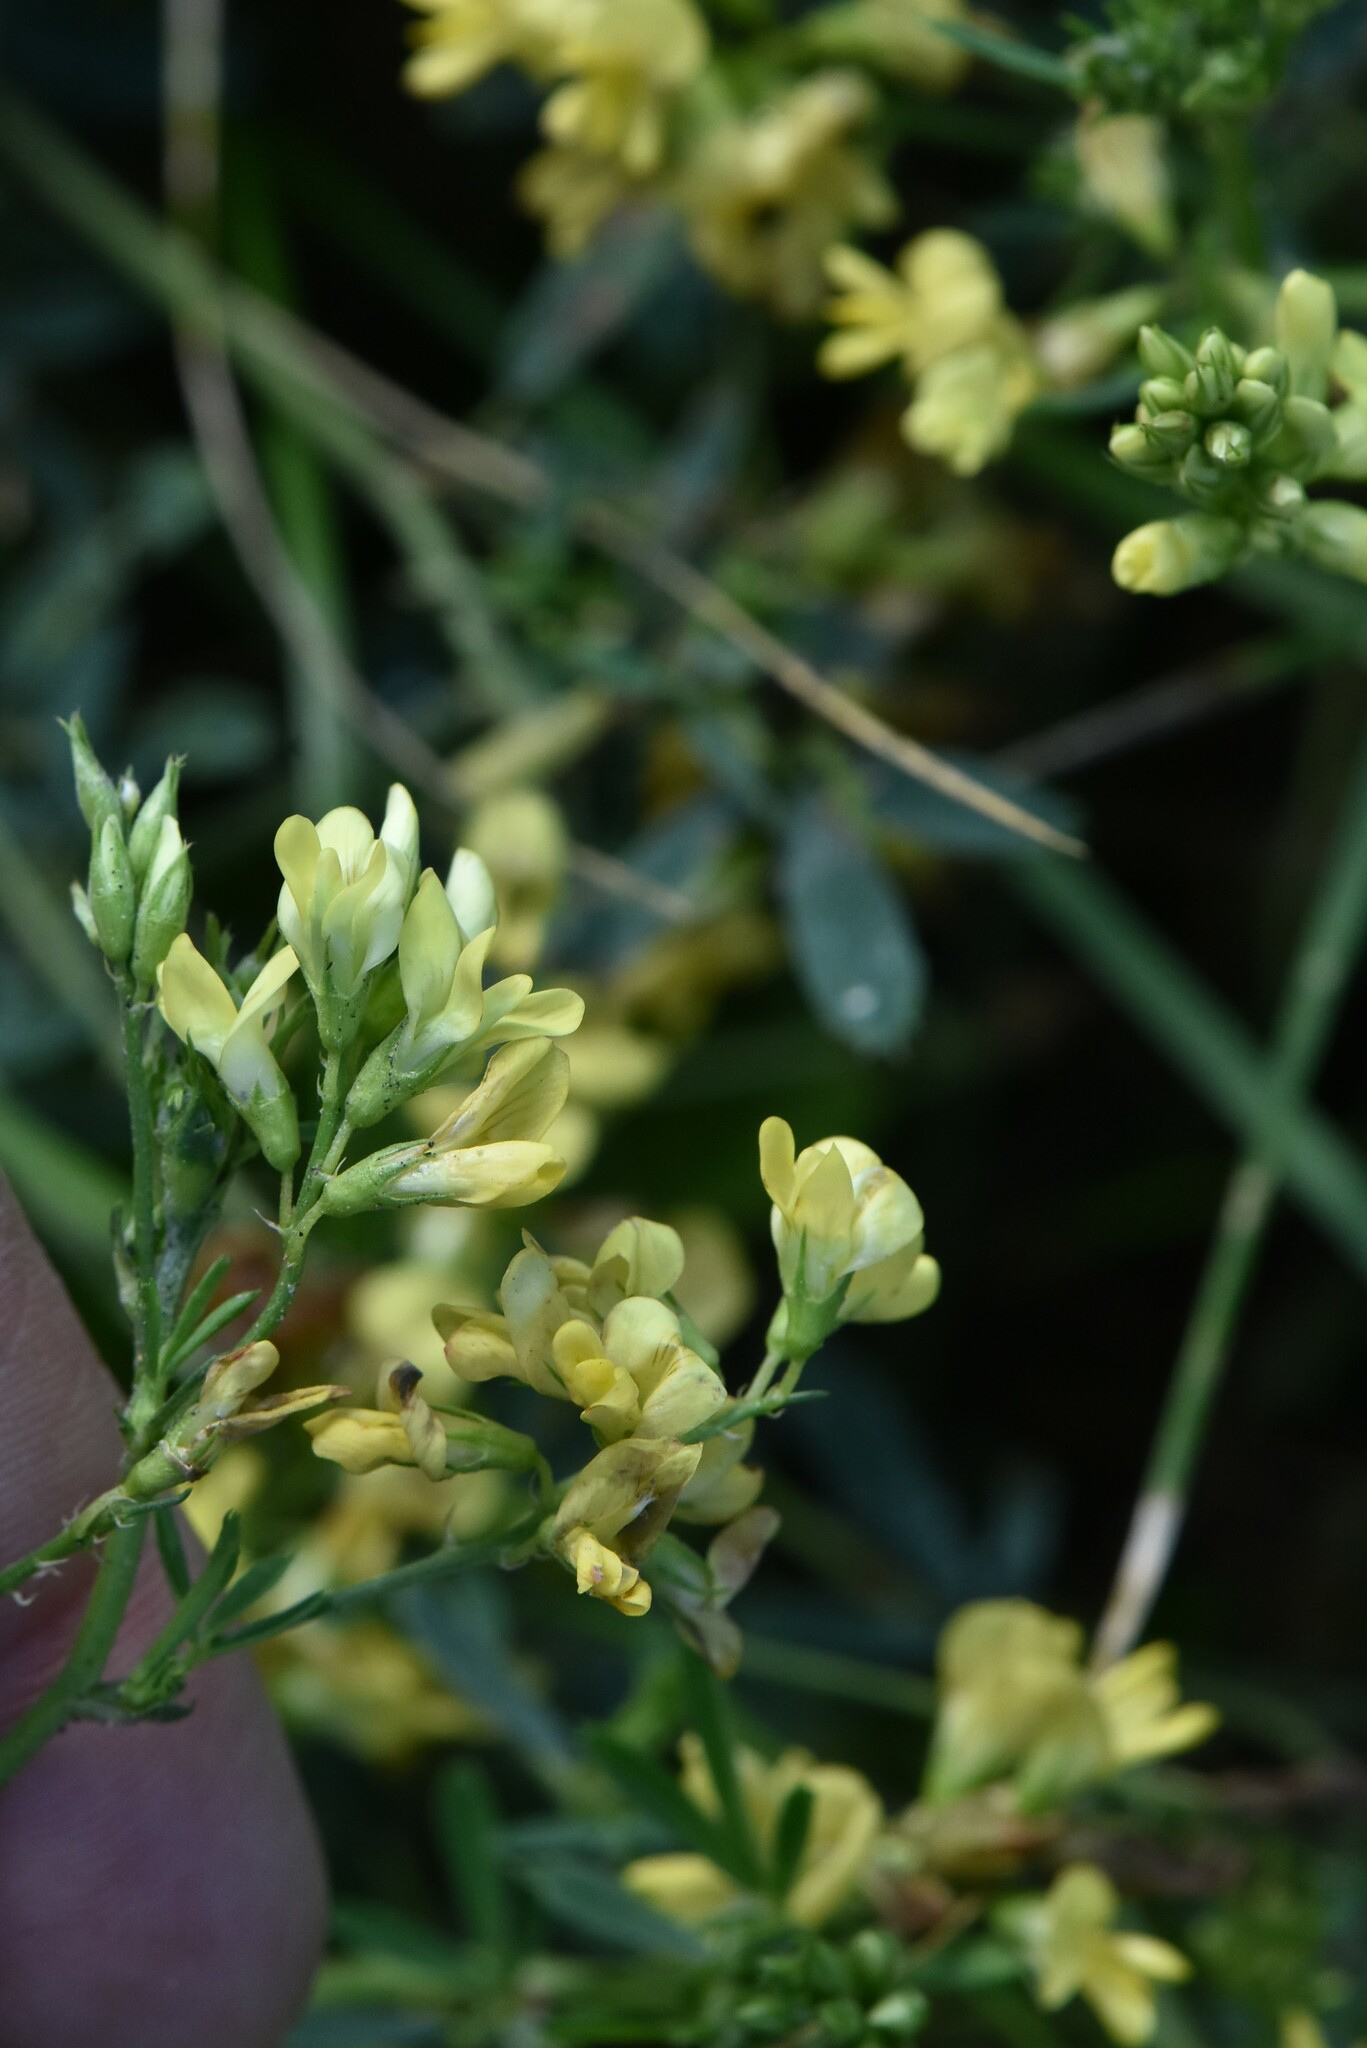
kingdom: Plantae
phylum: Tracheophyta
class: Magnoliopsida
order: Fabales
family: Fabaceae
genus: Medicago
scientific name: Medicago falcata
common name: Sickle medick
